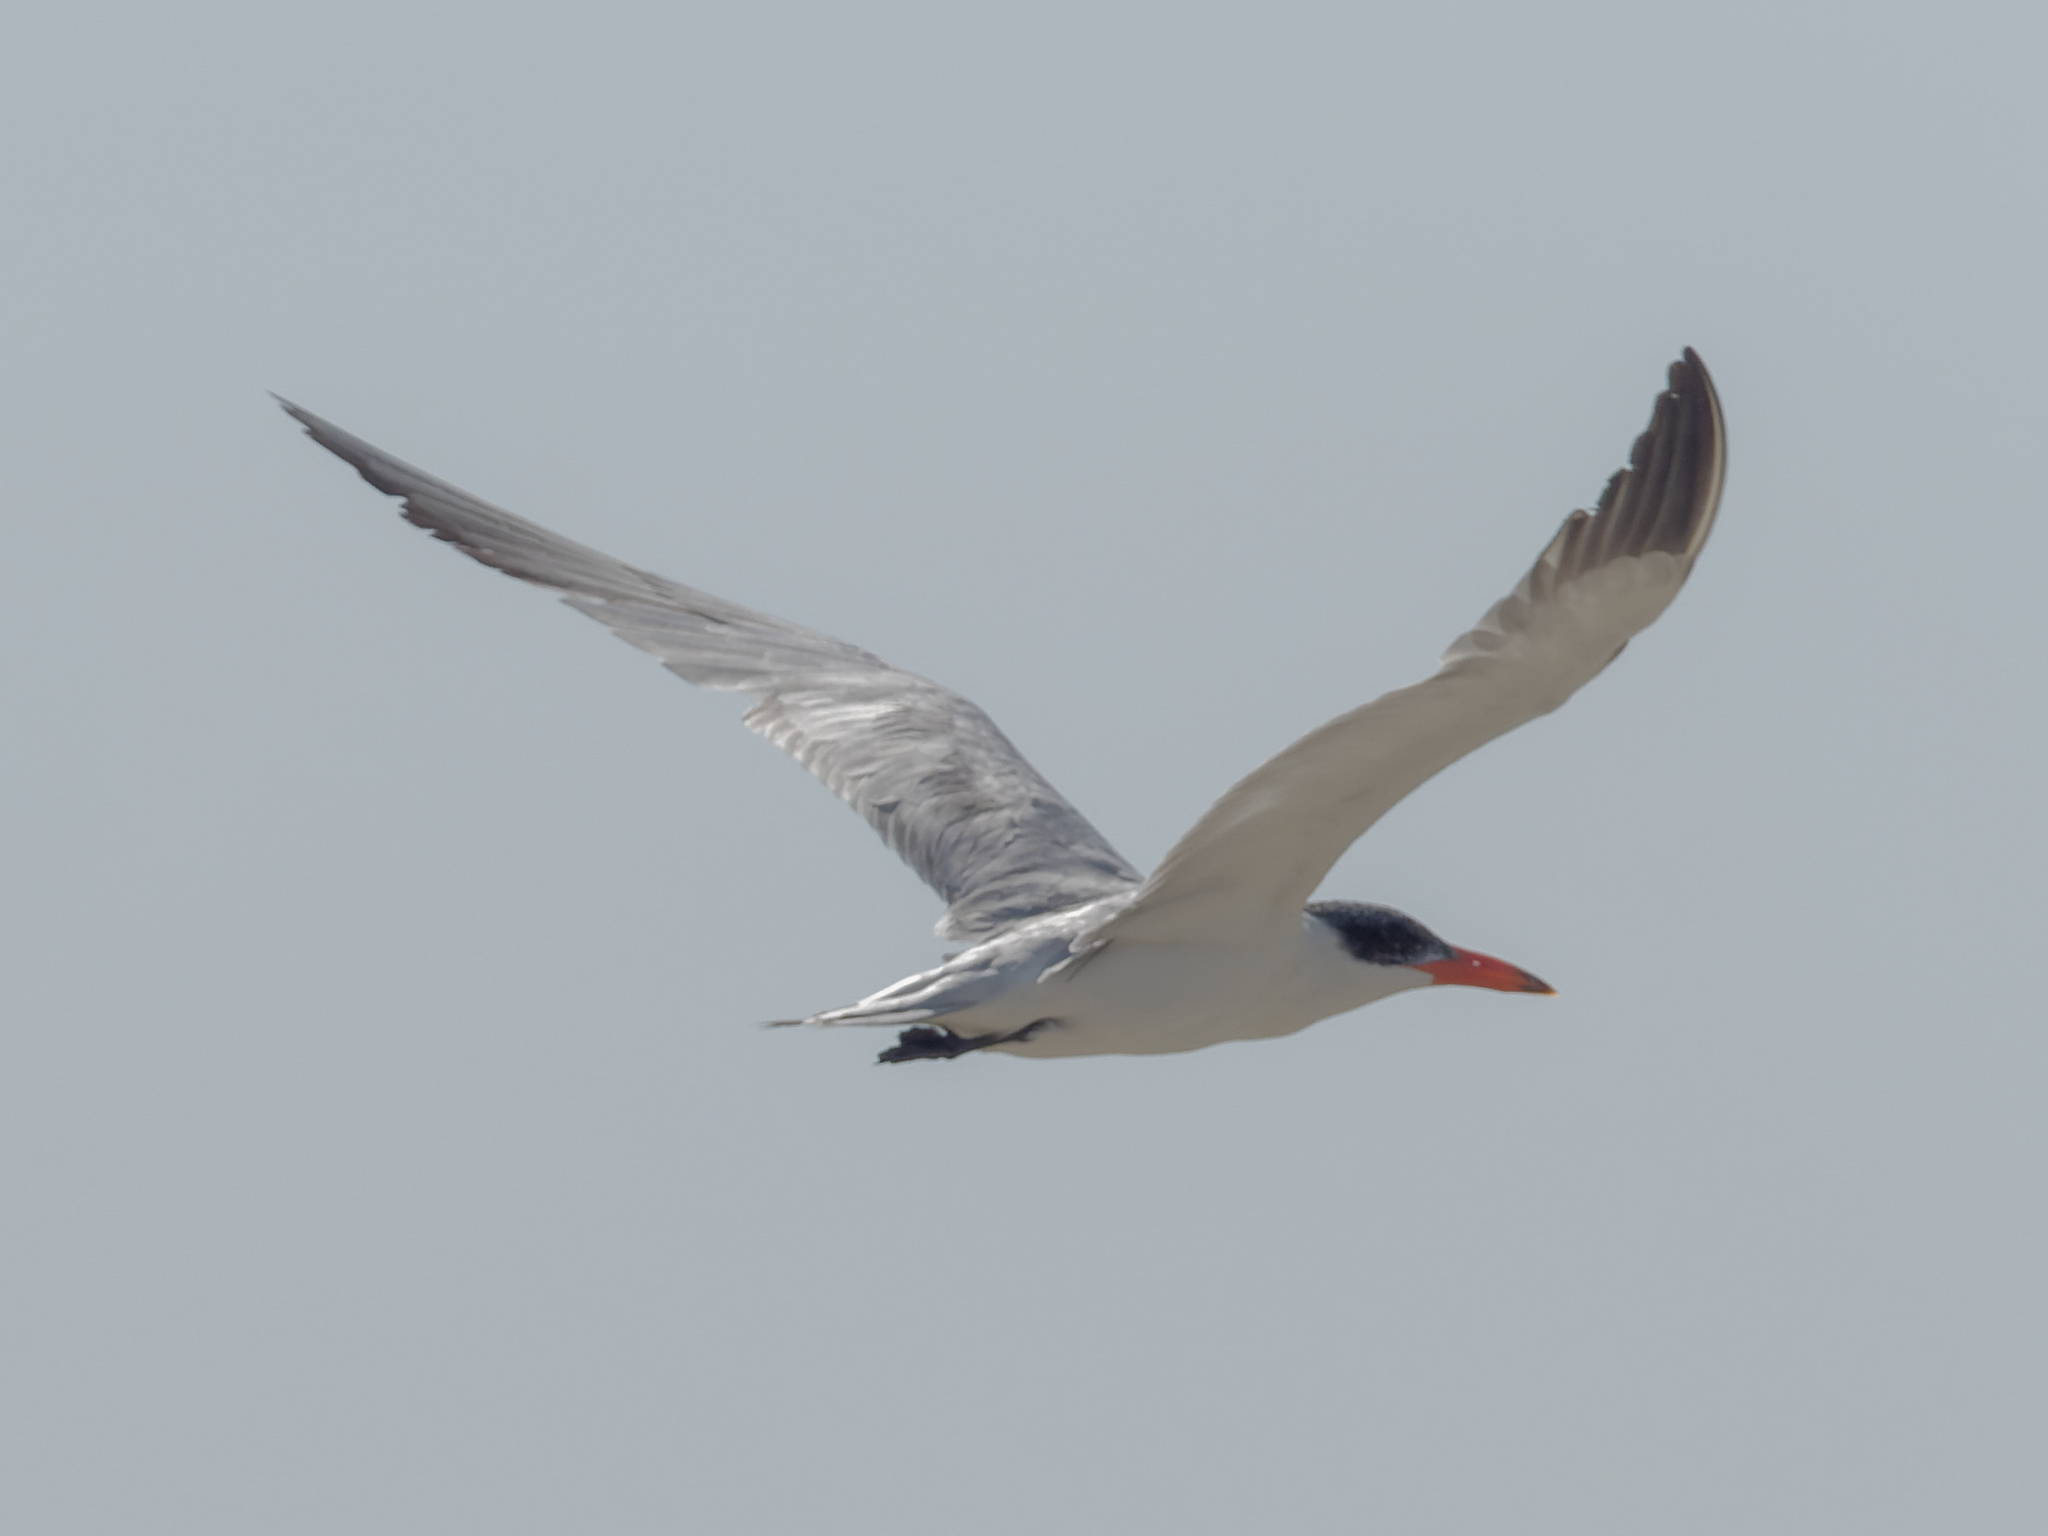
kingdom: Animalia
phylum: Chordata
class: Aves
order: Charadriiformes
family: Laridae
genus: Hydroprogne
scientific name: Hydroprogne caspia
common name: Caspian tern
